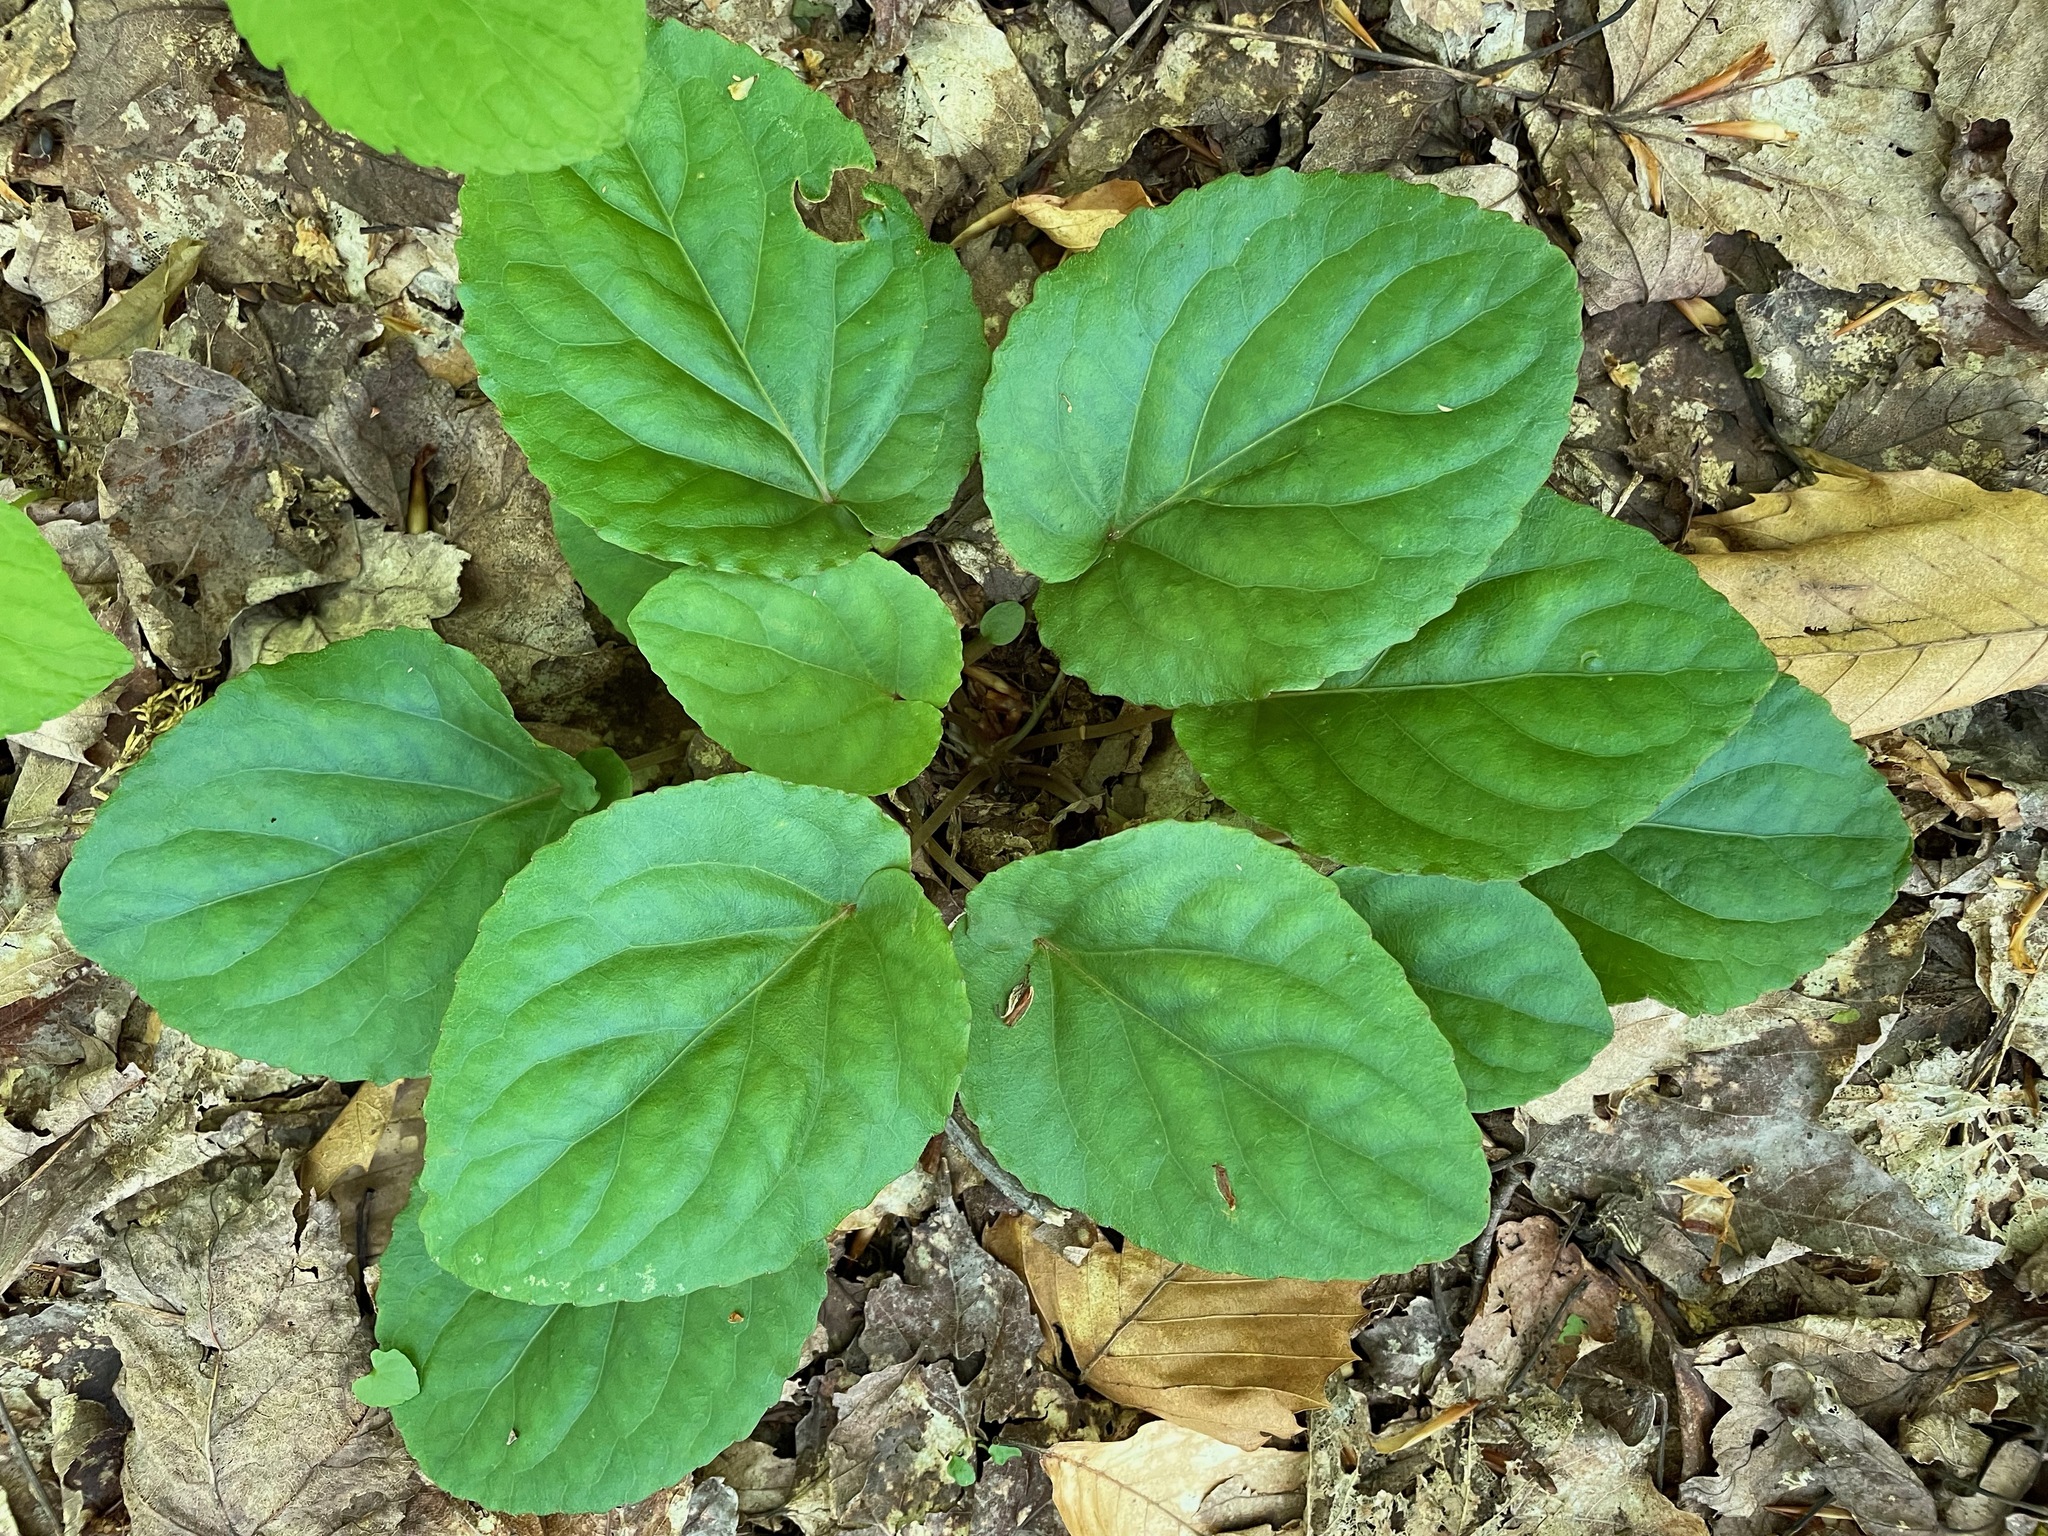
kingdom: Plantae
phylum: Tracheophyta
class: Magnoliopsida
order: Malpighiales
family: Violaceae
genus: Viola
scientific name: Viola rotundifolia
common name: Early yellow violet
